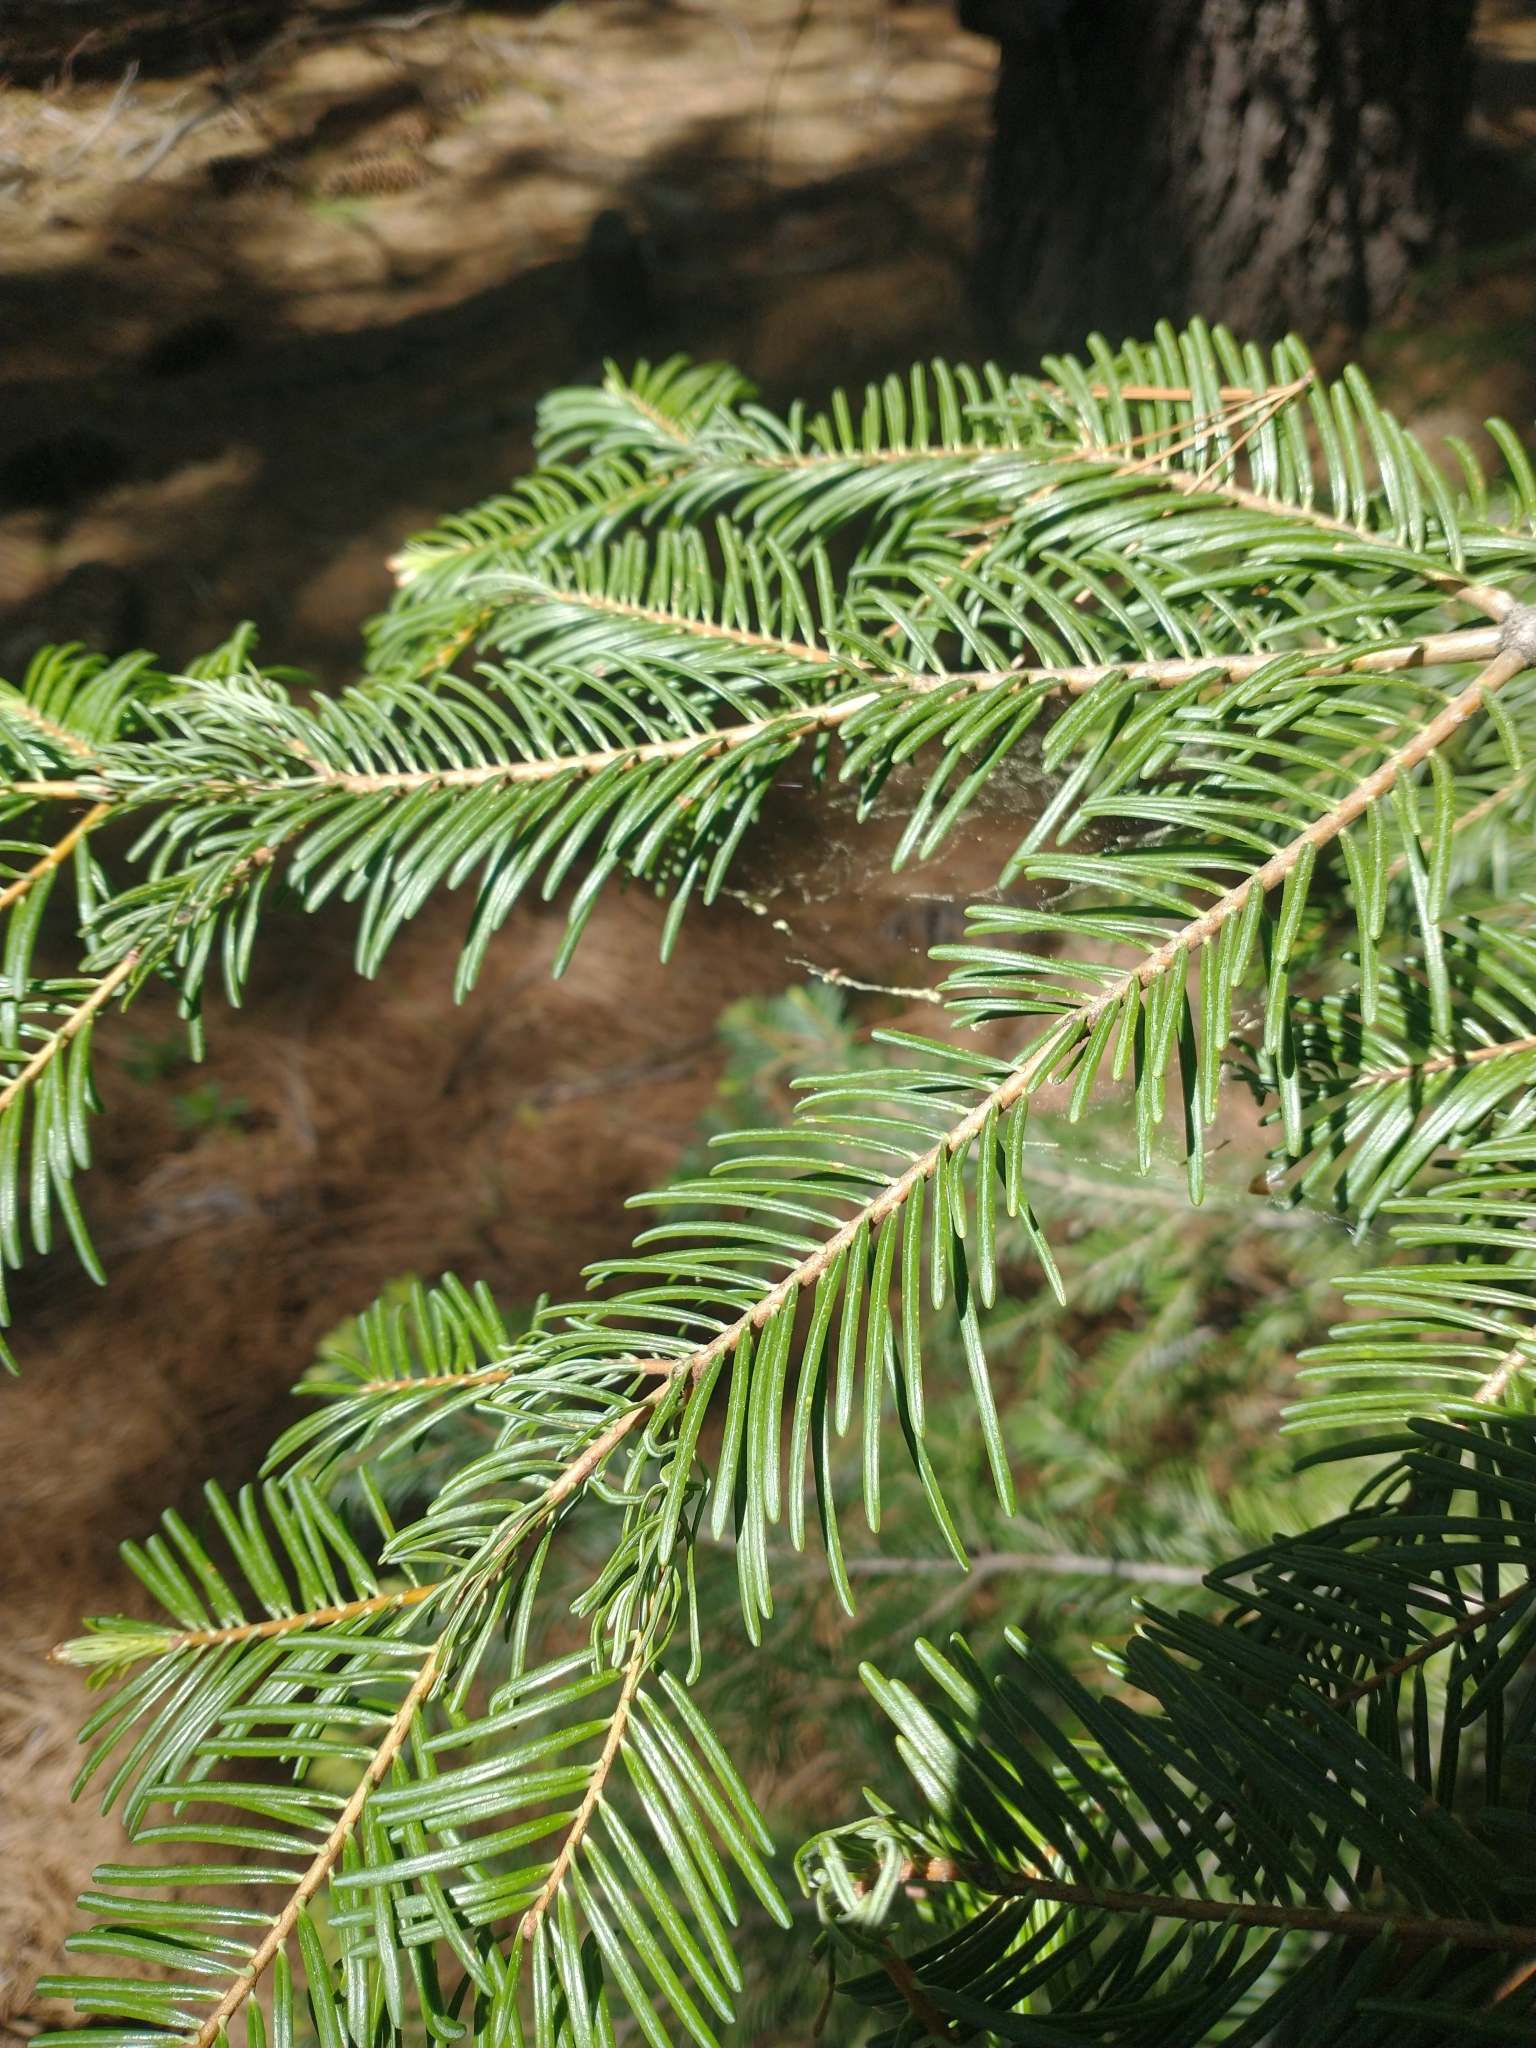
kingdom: Plantae
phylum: Tracheophyta
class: Pinopsida
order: Pinales
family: Pinaceae
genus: Abies
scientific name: Abies concolor
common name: Colorado fir
